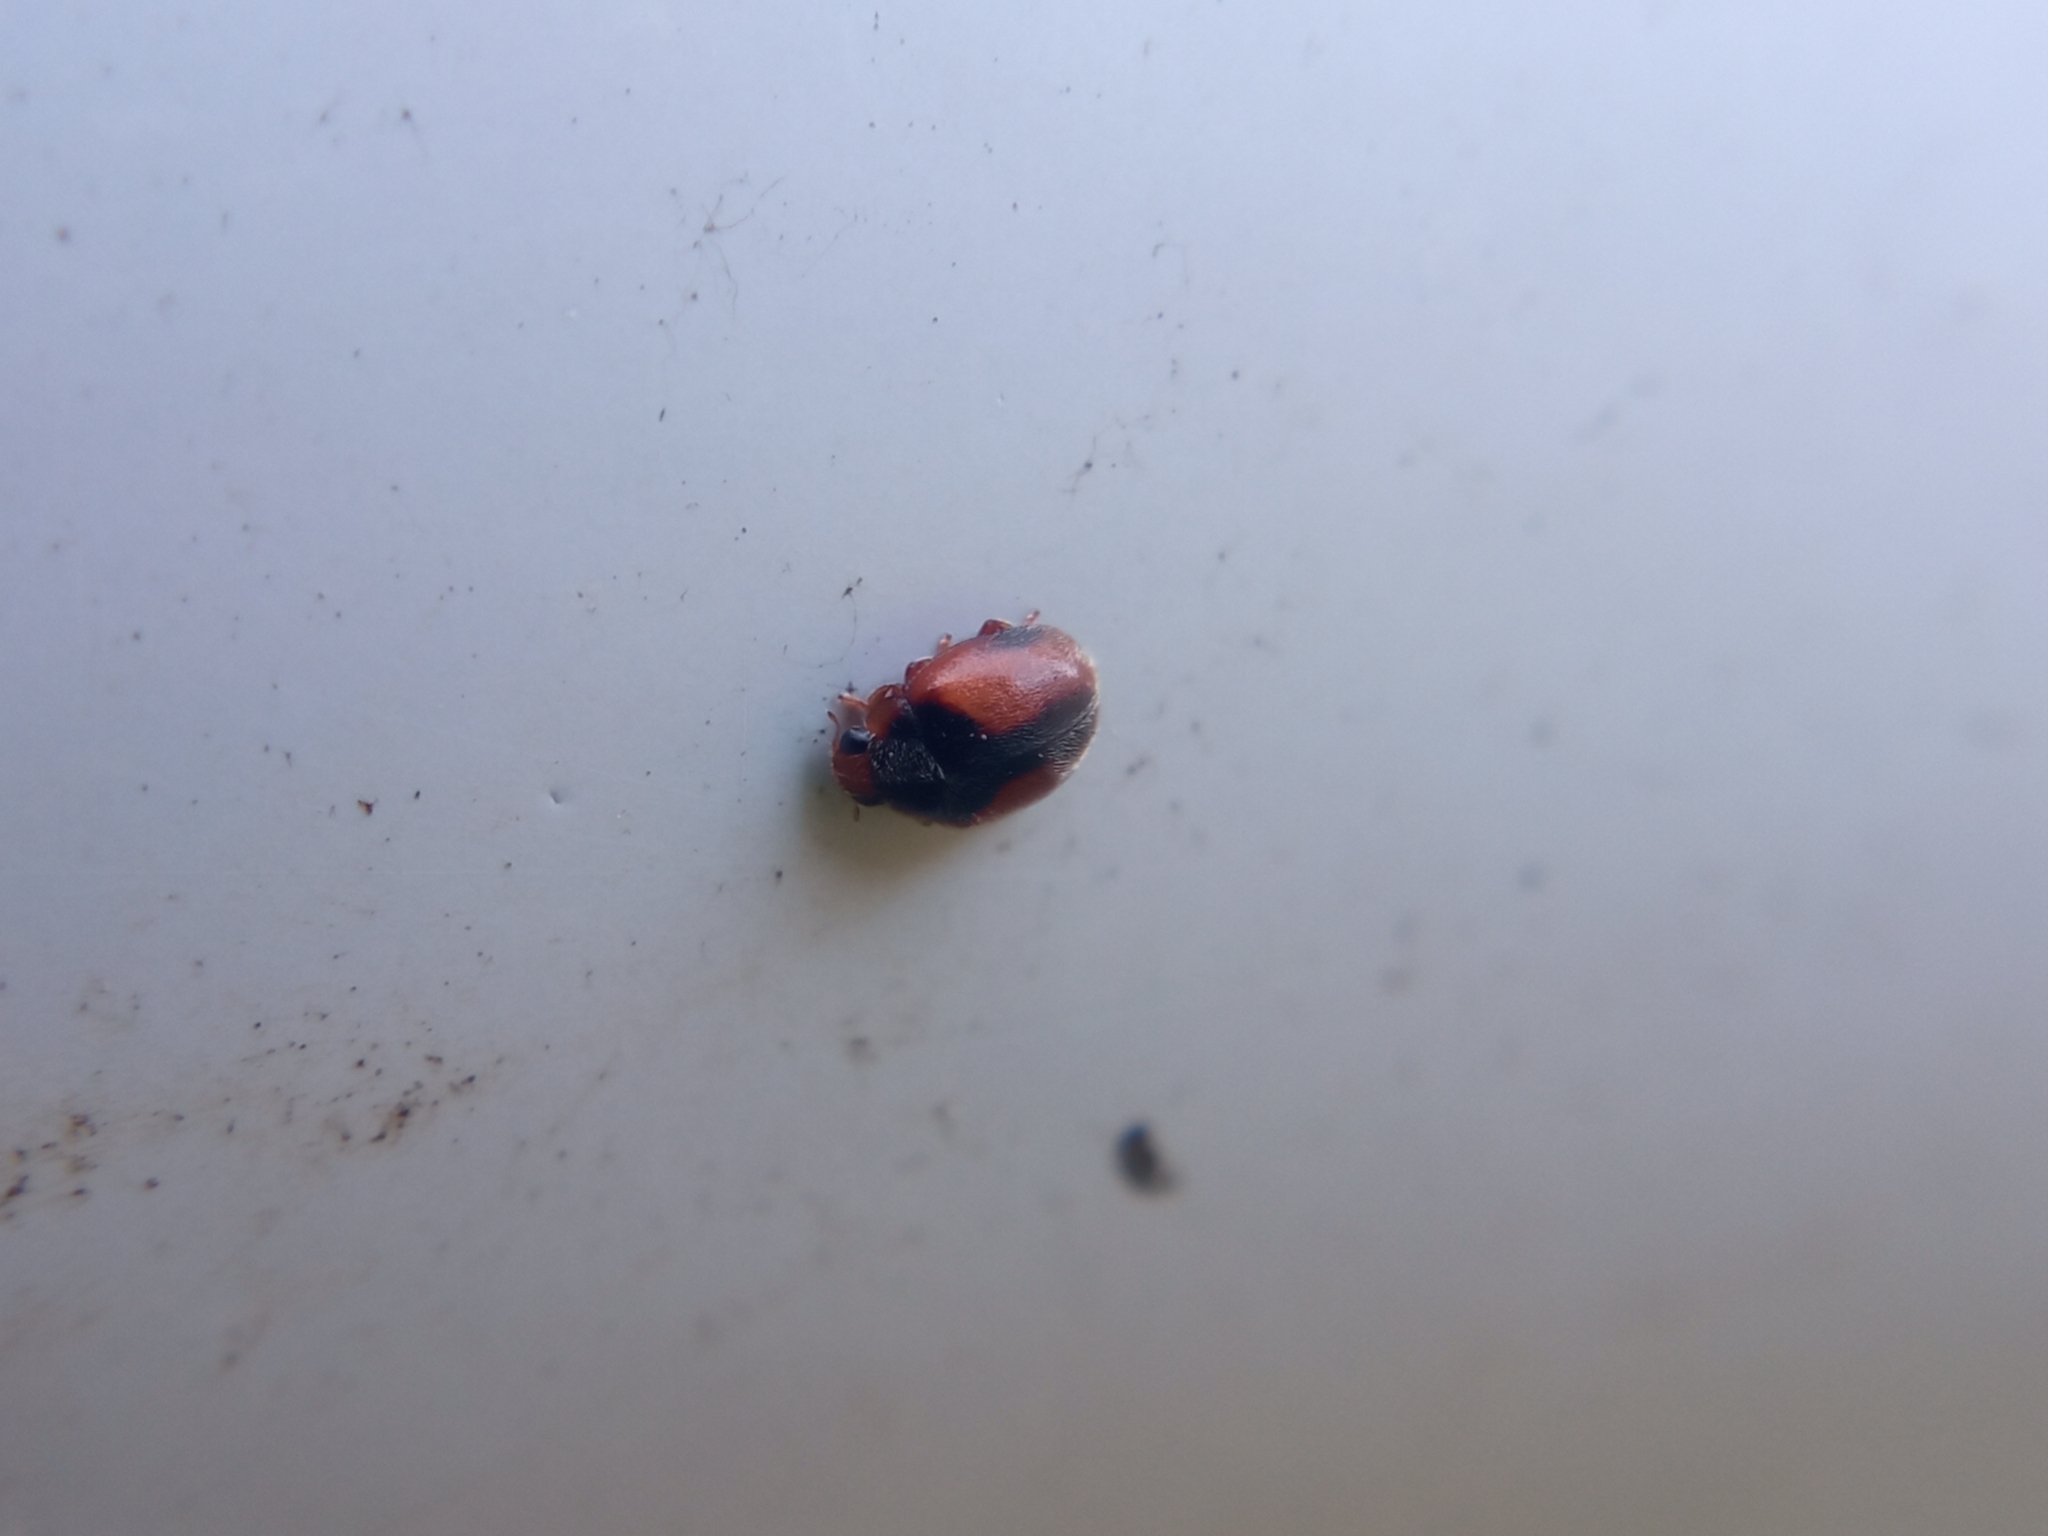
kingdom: Animalia
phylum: Arthropoda
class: Insecta
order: Coleoptera
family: Coccinellidae
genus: Scymnus
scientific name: Scymnus interruptus
